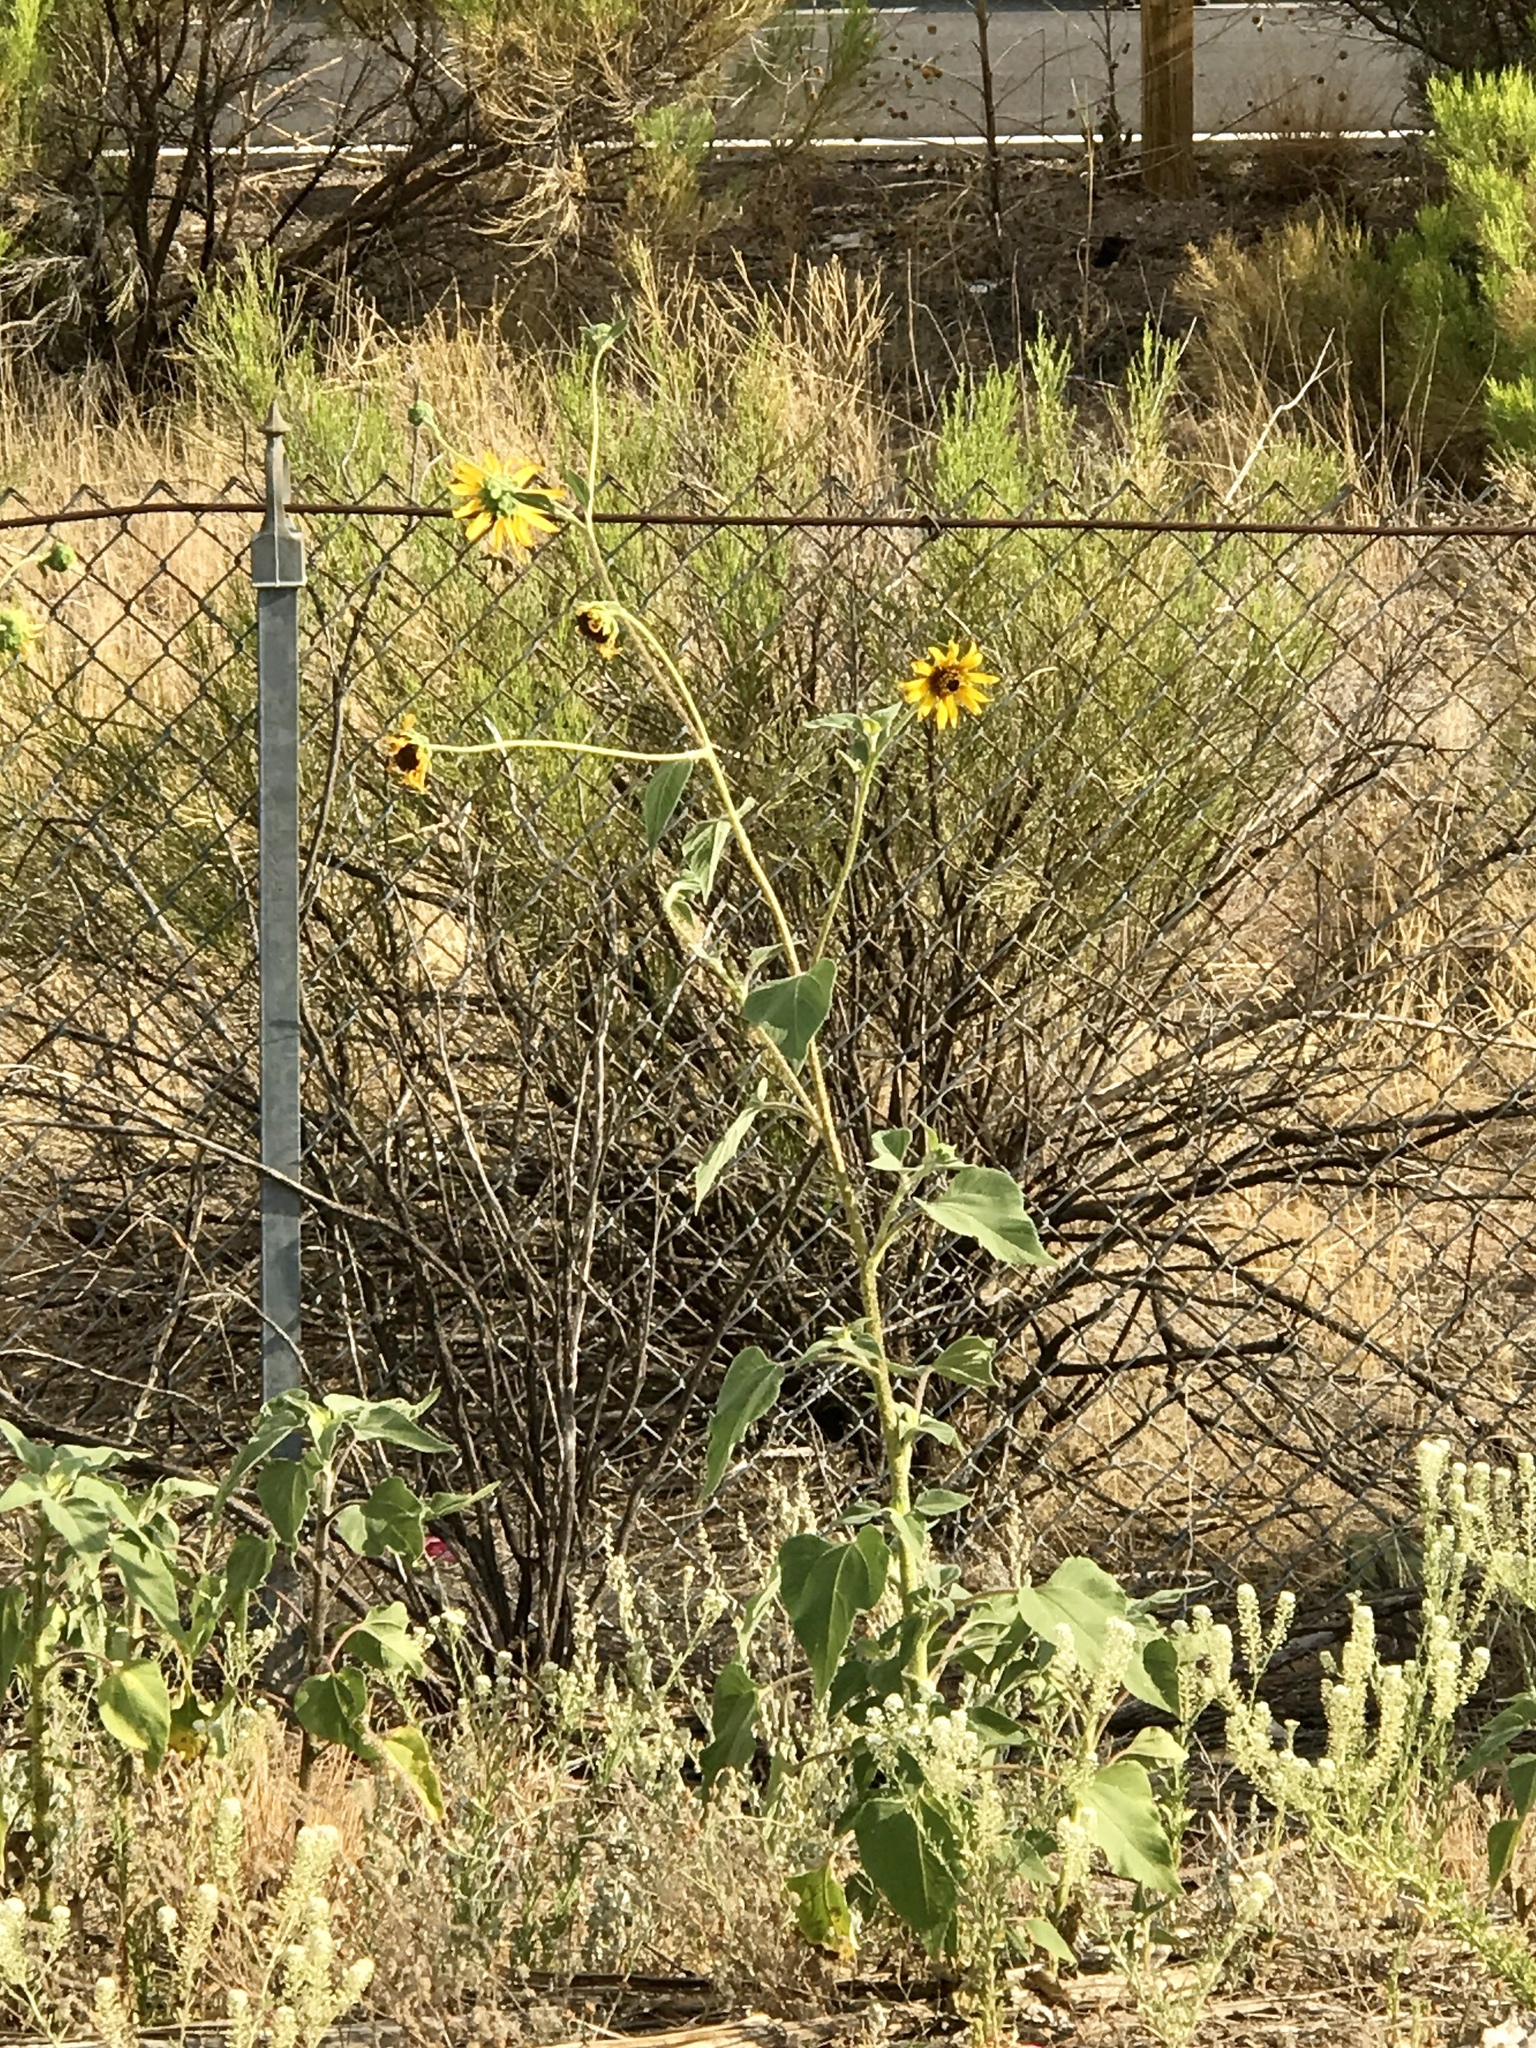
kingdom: Plantae
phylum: Tracheophyta
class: Magnoliopsida
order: Asterales
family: Asteraceae
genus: Helianthus
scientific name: Helianthus annuus
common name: Sunflower
